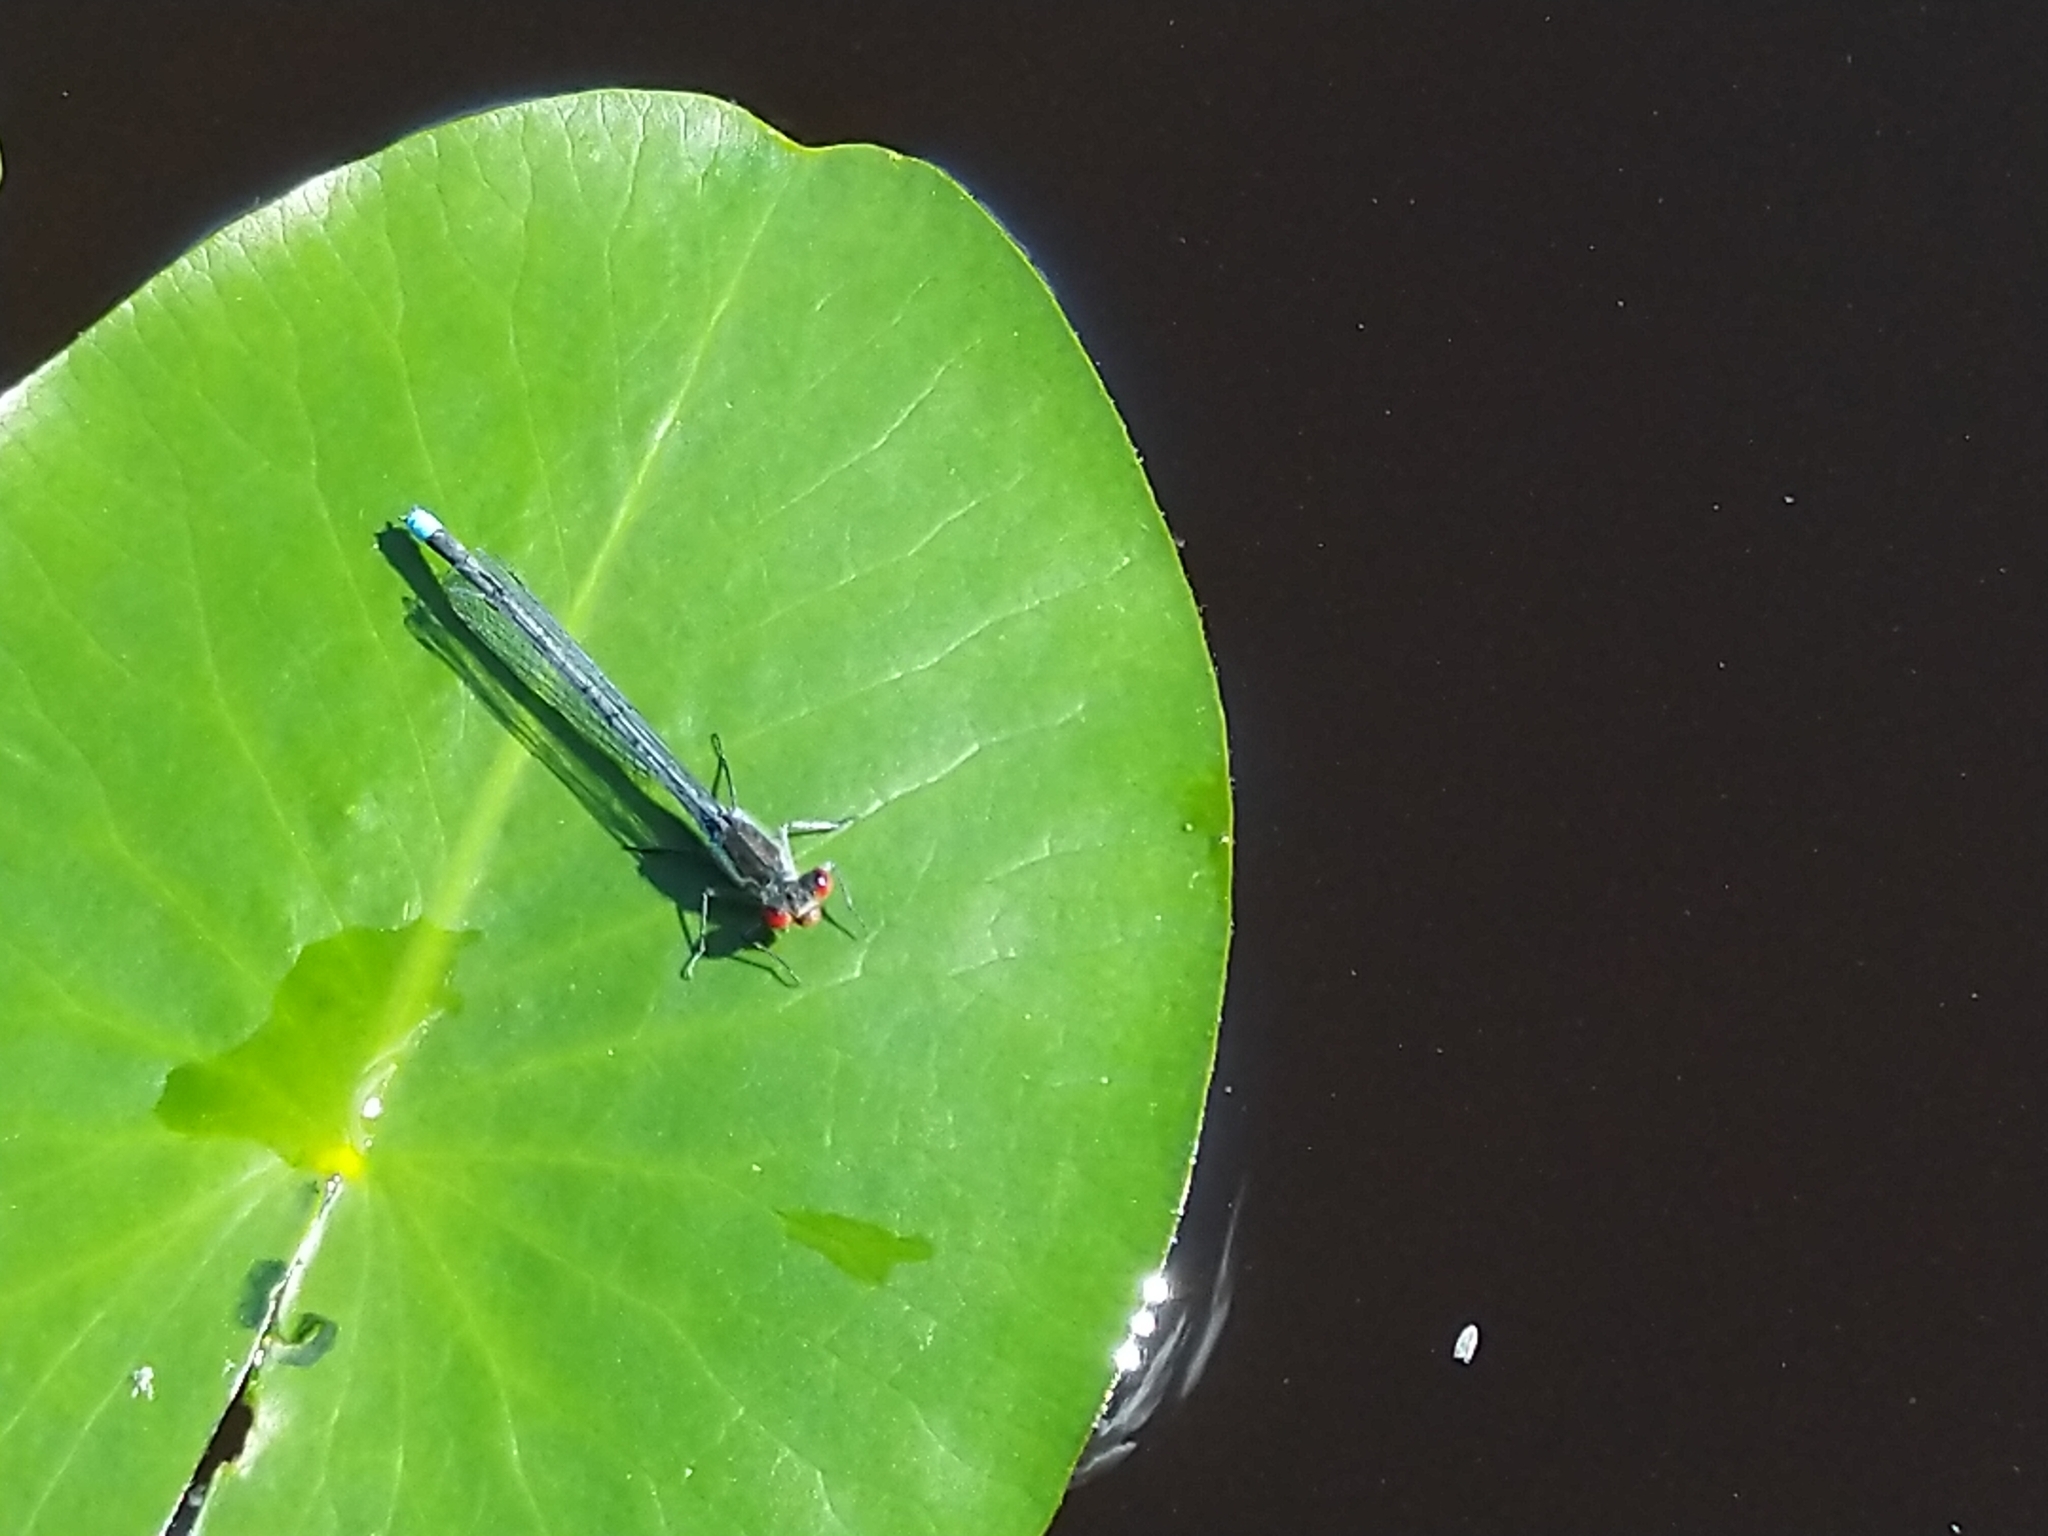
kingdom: Animalia
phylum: Arthropoda
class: Insecta
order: Odonata
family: Coenagrionidae
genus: Erythromma
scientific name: Erythromma najas
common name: Red-eyed damselfly
